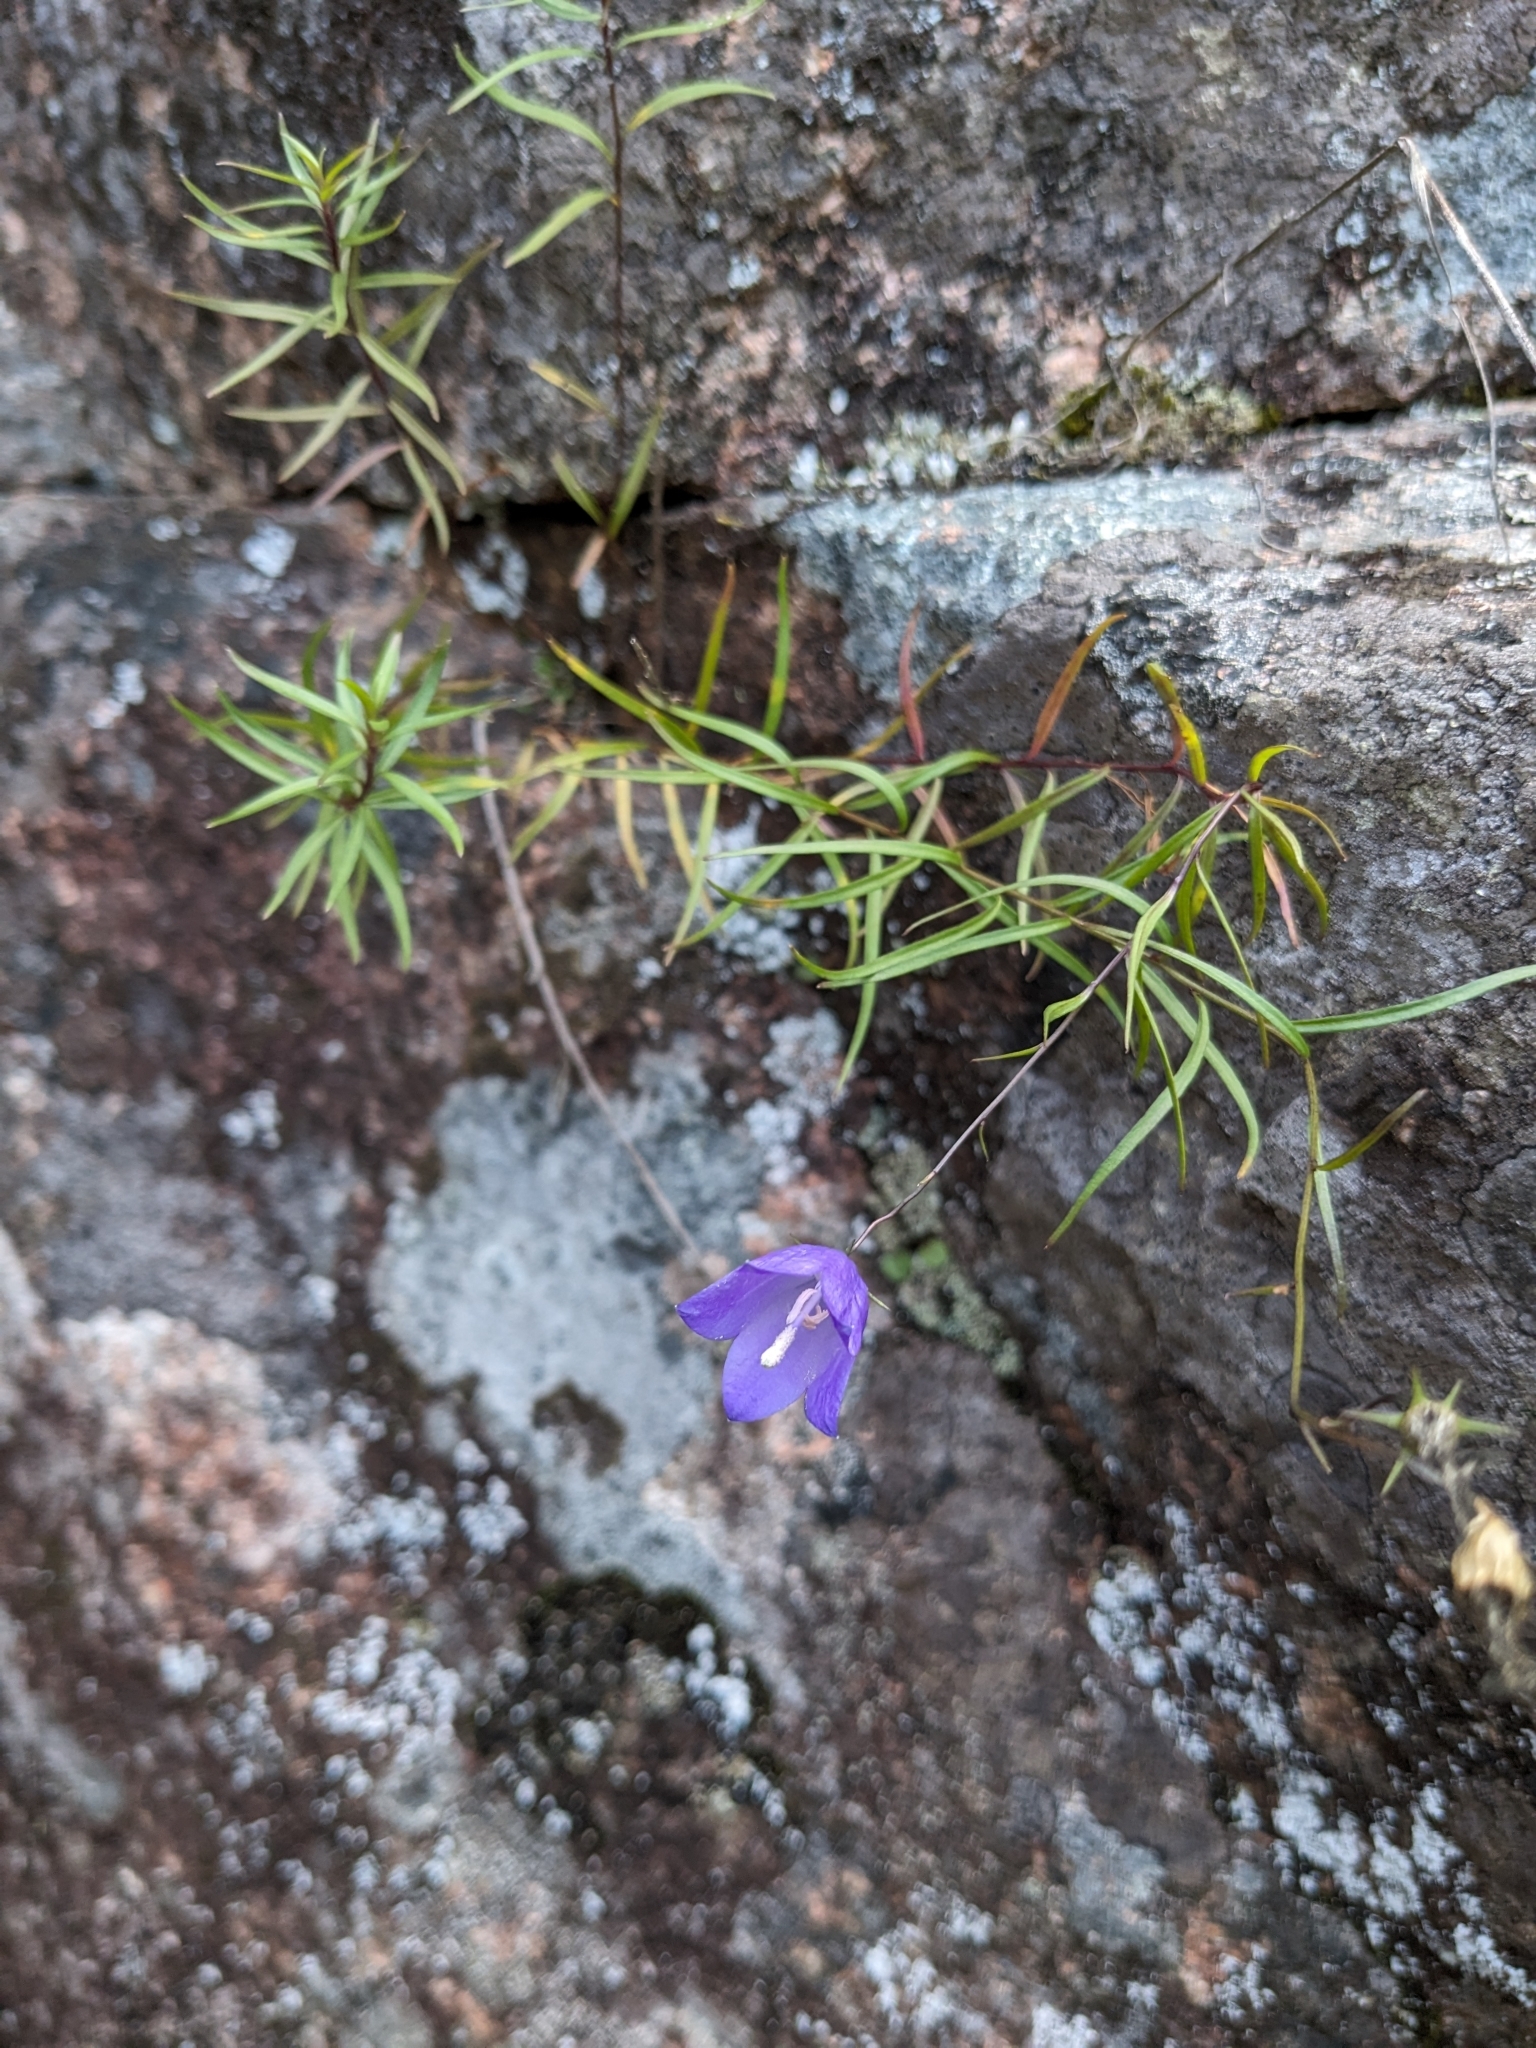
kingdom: Plantae
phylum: Tracheophyta
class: Magnoliopsida
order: Asterales
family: Campanulaceae
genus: Campanula
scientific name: Campanula giesekiana
